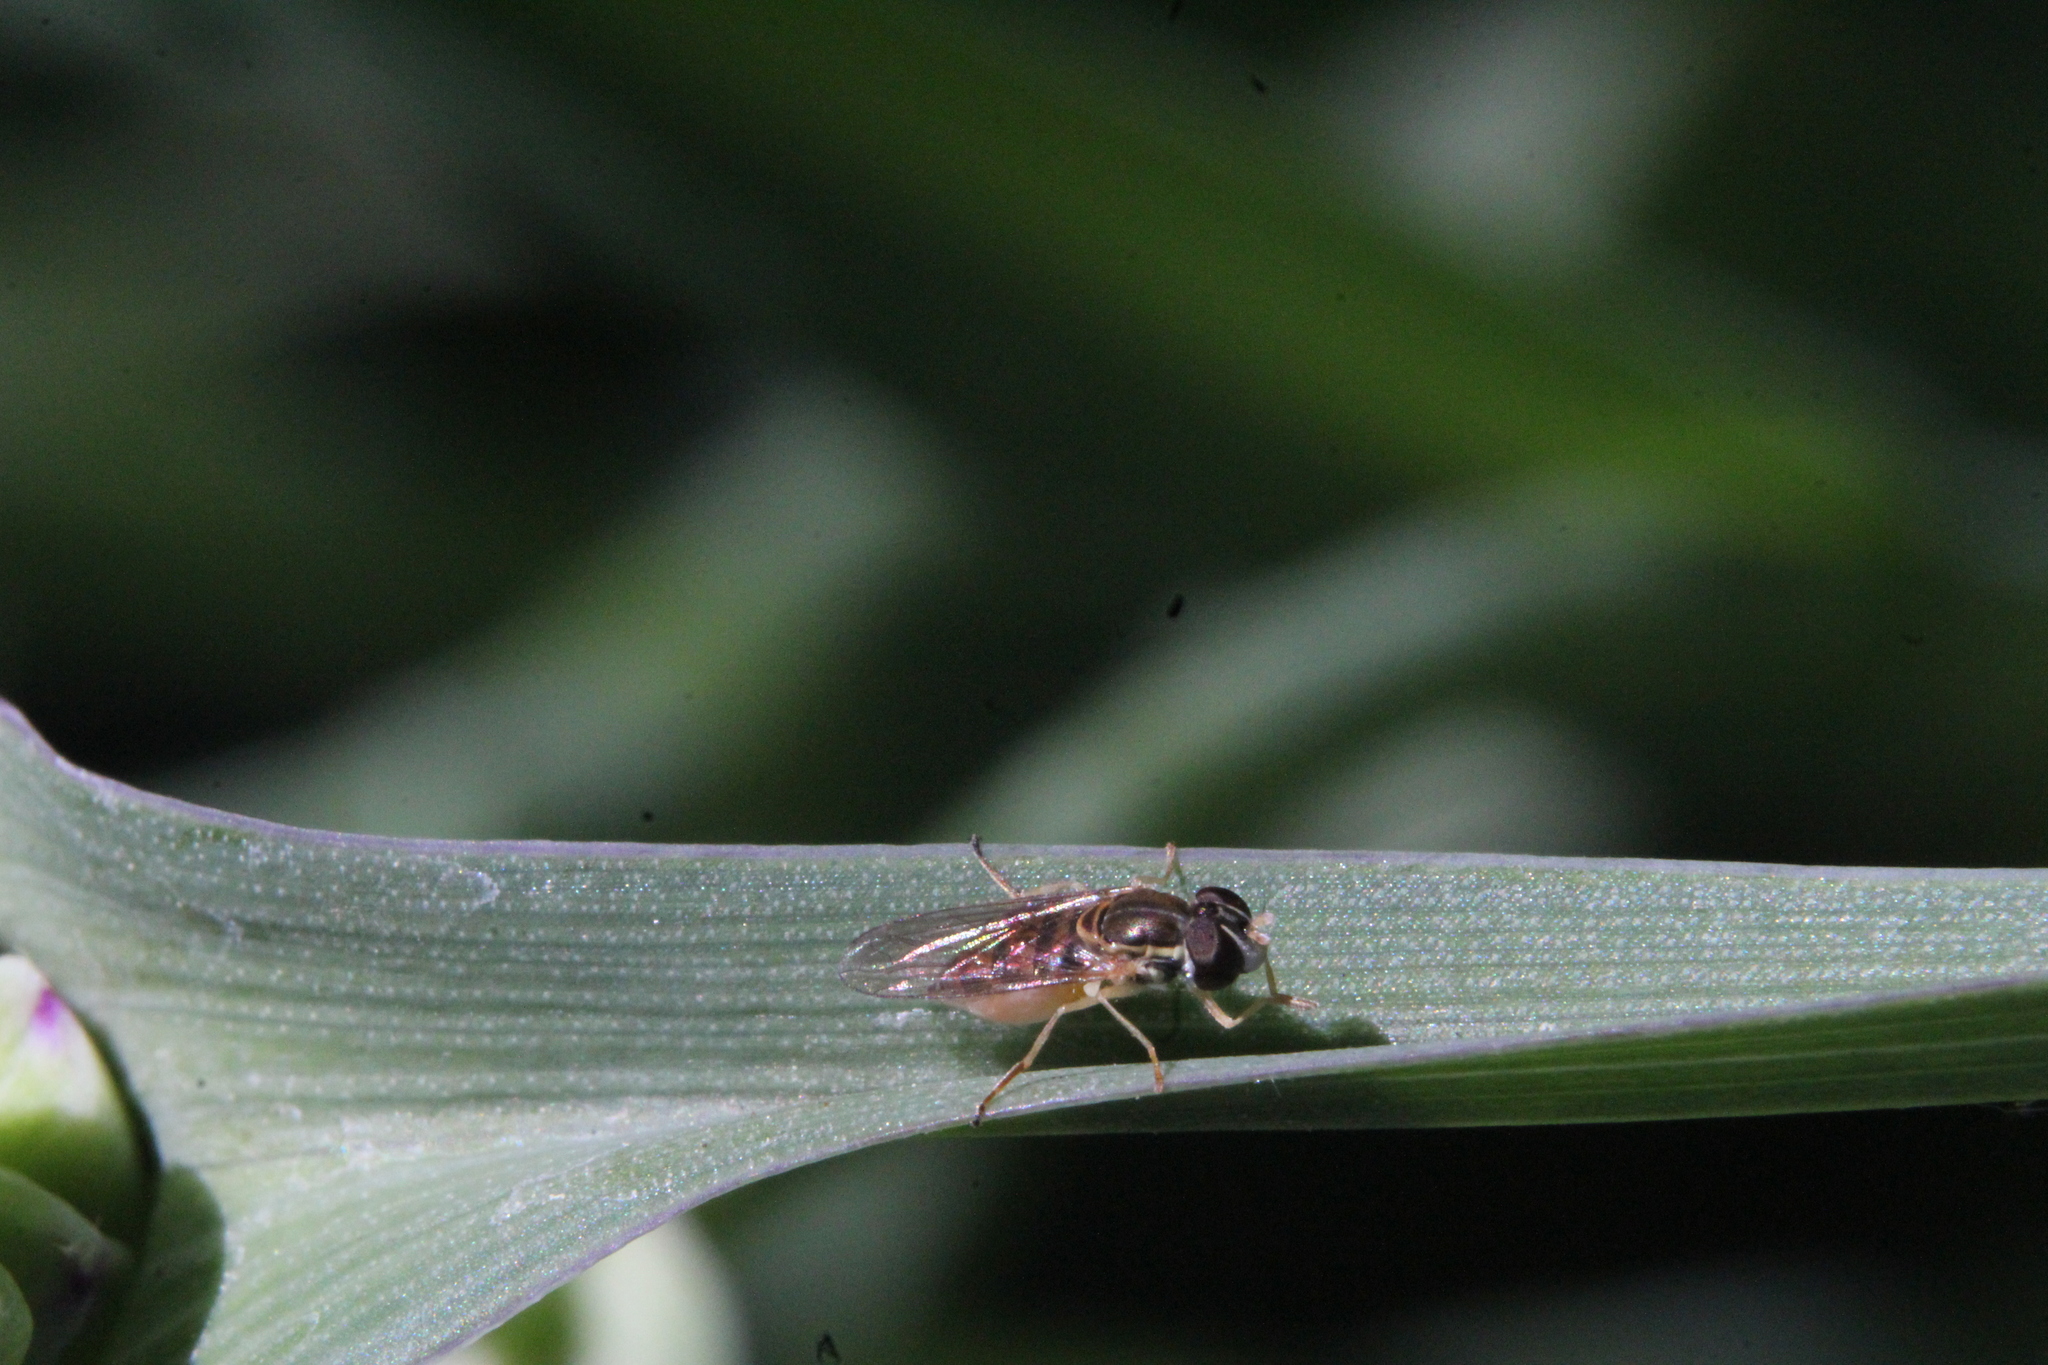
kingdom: Animalia
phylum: Arthropoda
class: Insecta
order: Diptera
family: Syrphidae
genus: Toxomerus
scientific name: Toxomerus marginatus
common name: Syrphid fly
